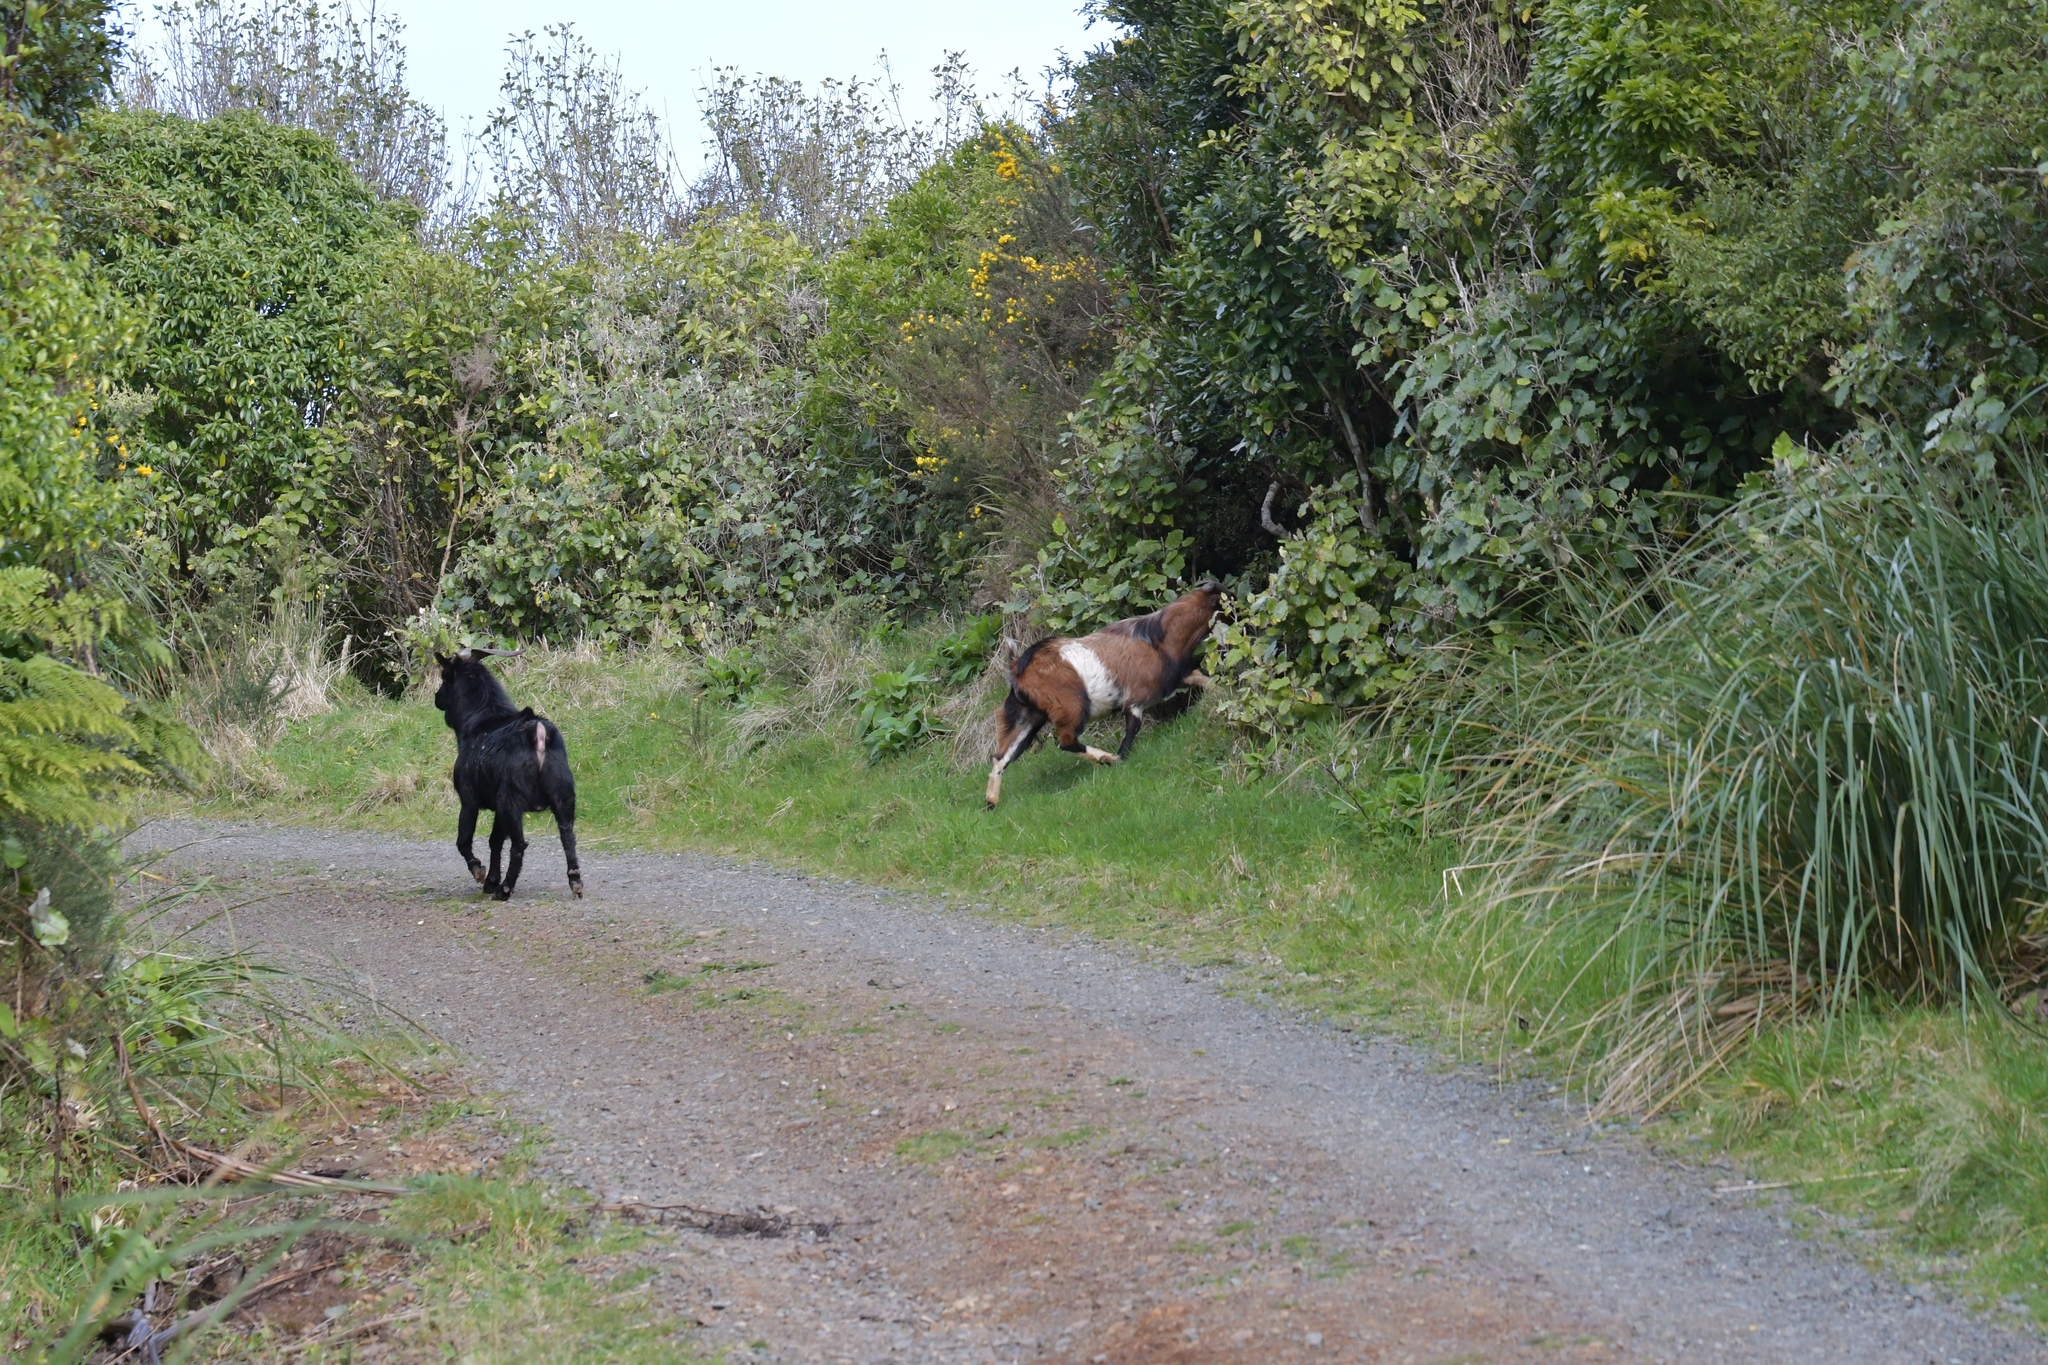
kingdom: Animalia
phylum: Chordata
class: Mammalia
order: Artiodactyla
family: Bovidae
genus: Capra
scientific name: Capra hircus
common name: Domestic goat
